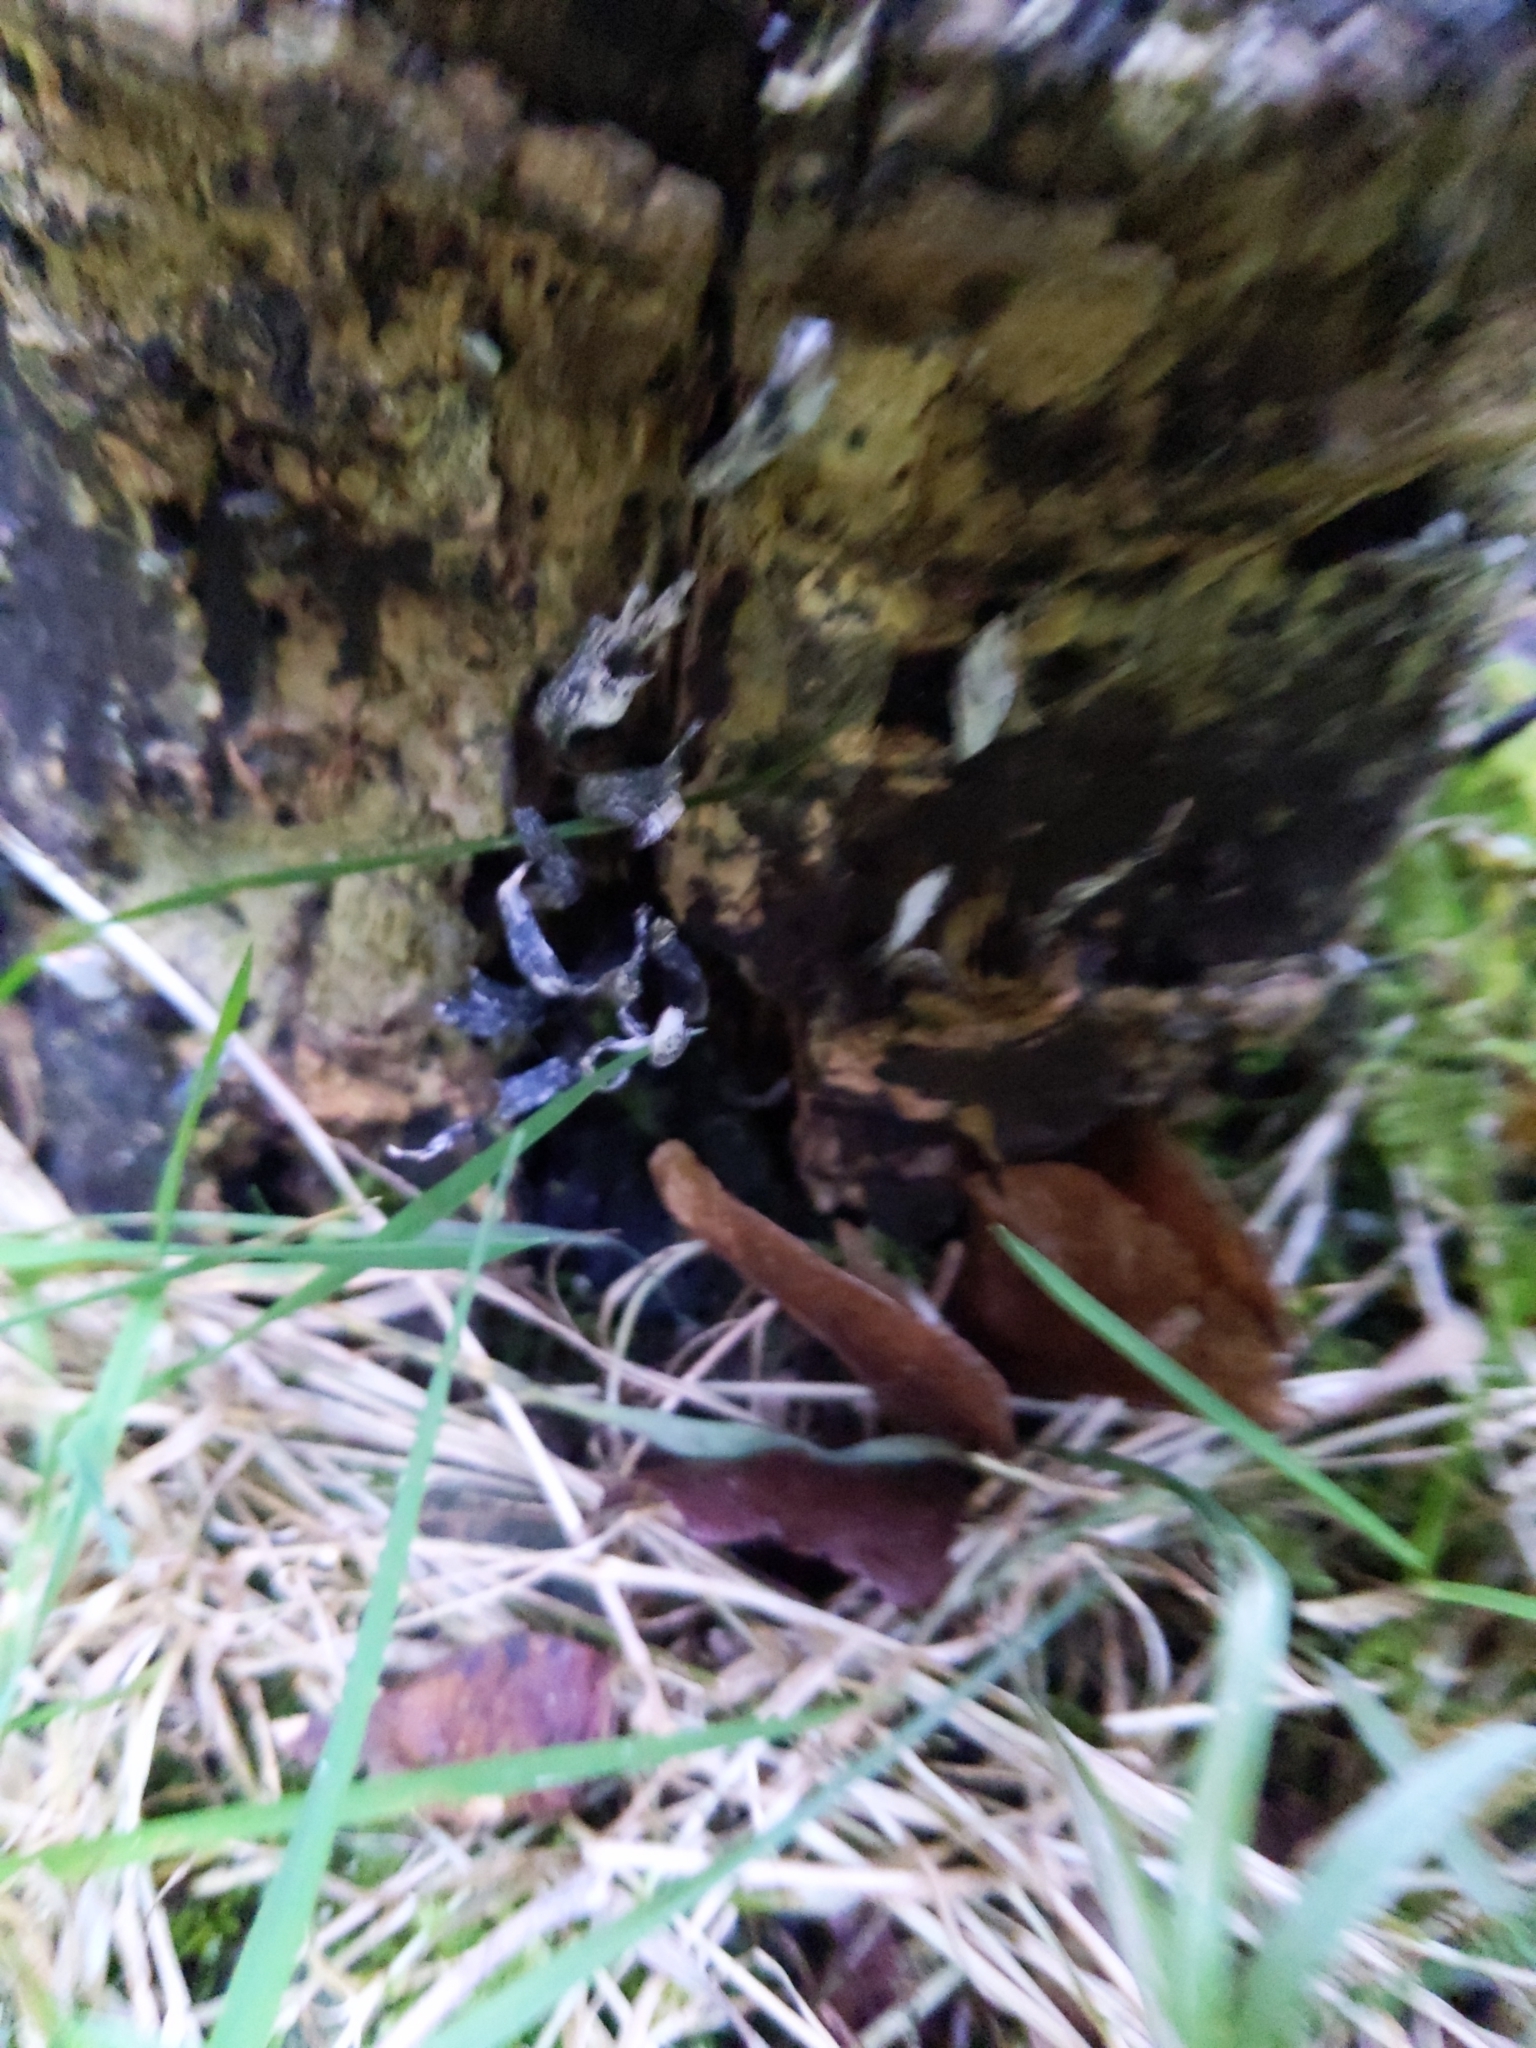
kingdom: Fungi
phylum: Ascomycota
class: Sordariomycetes
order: Xylariales
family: Xylariaceae
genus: Xylaria
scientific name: Xylaria hypoxylon
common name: Candle-snuff fungus
